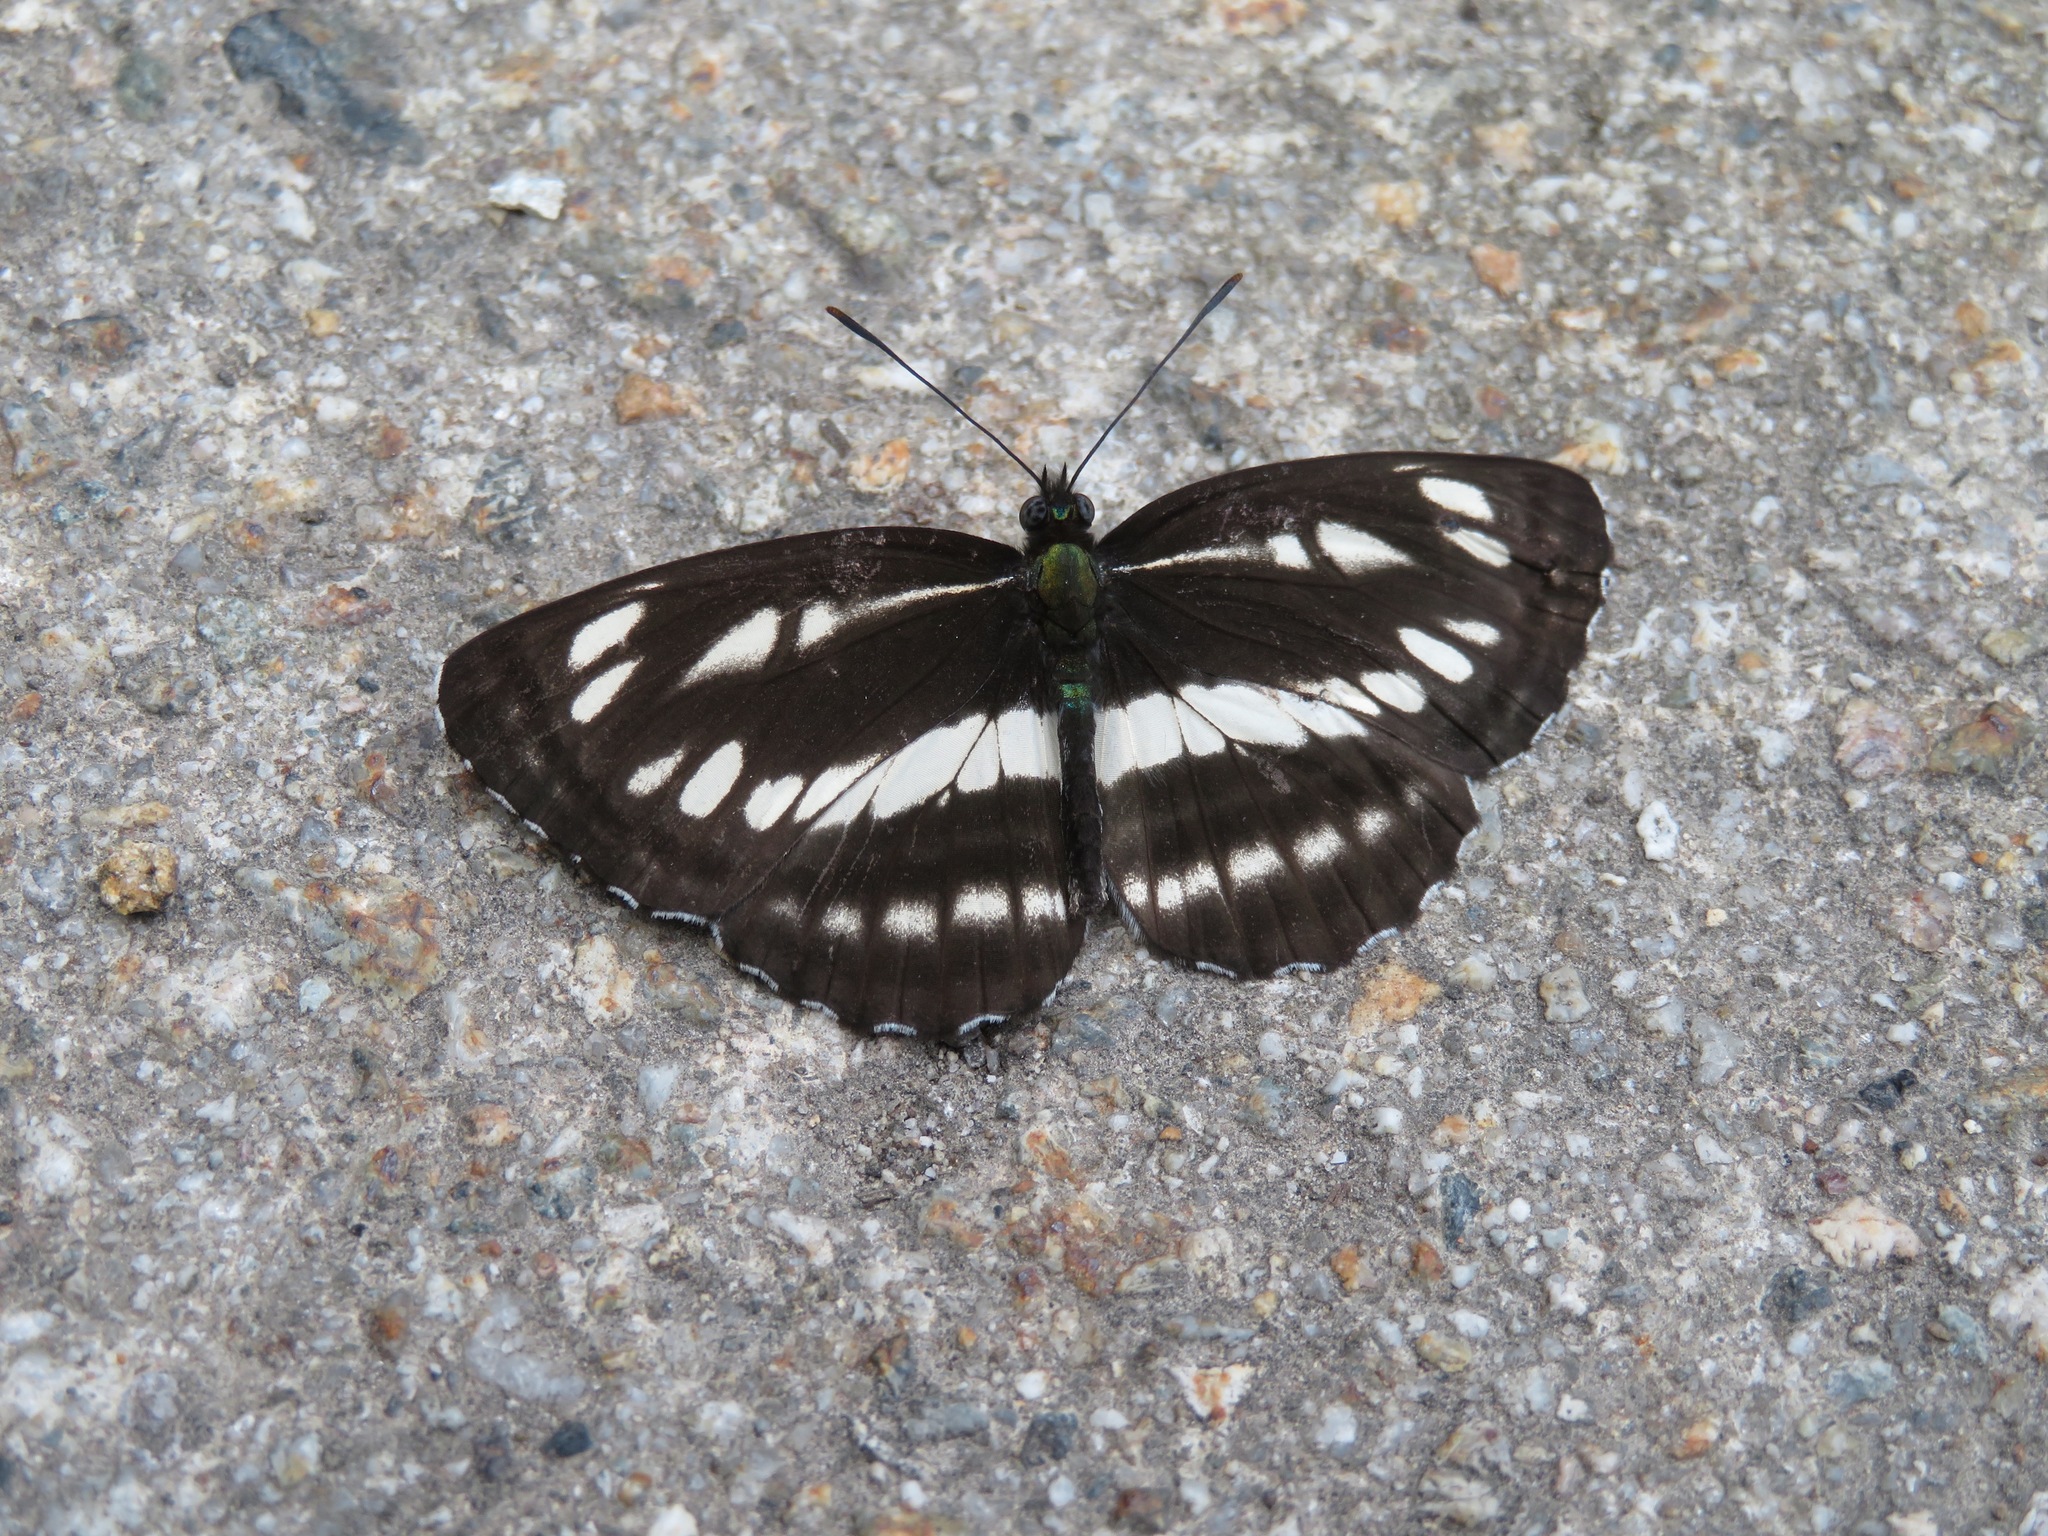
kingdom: Animalia
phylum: Arthropoda
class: Insecta
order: Lepidoptera
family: Nymphalidae
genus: Neptis
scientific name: Neptis sappho
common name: Common glider
